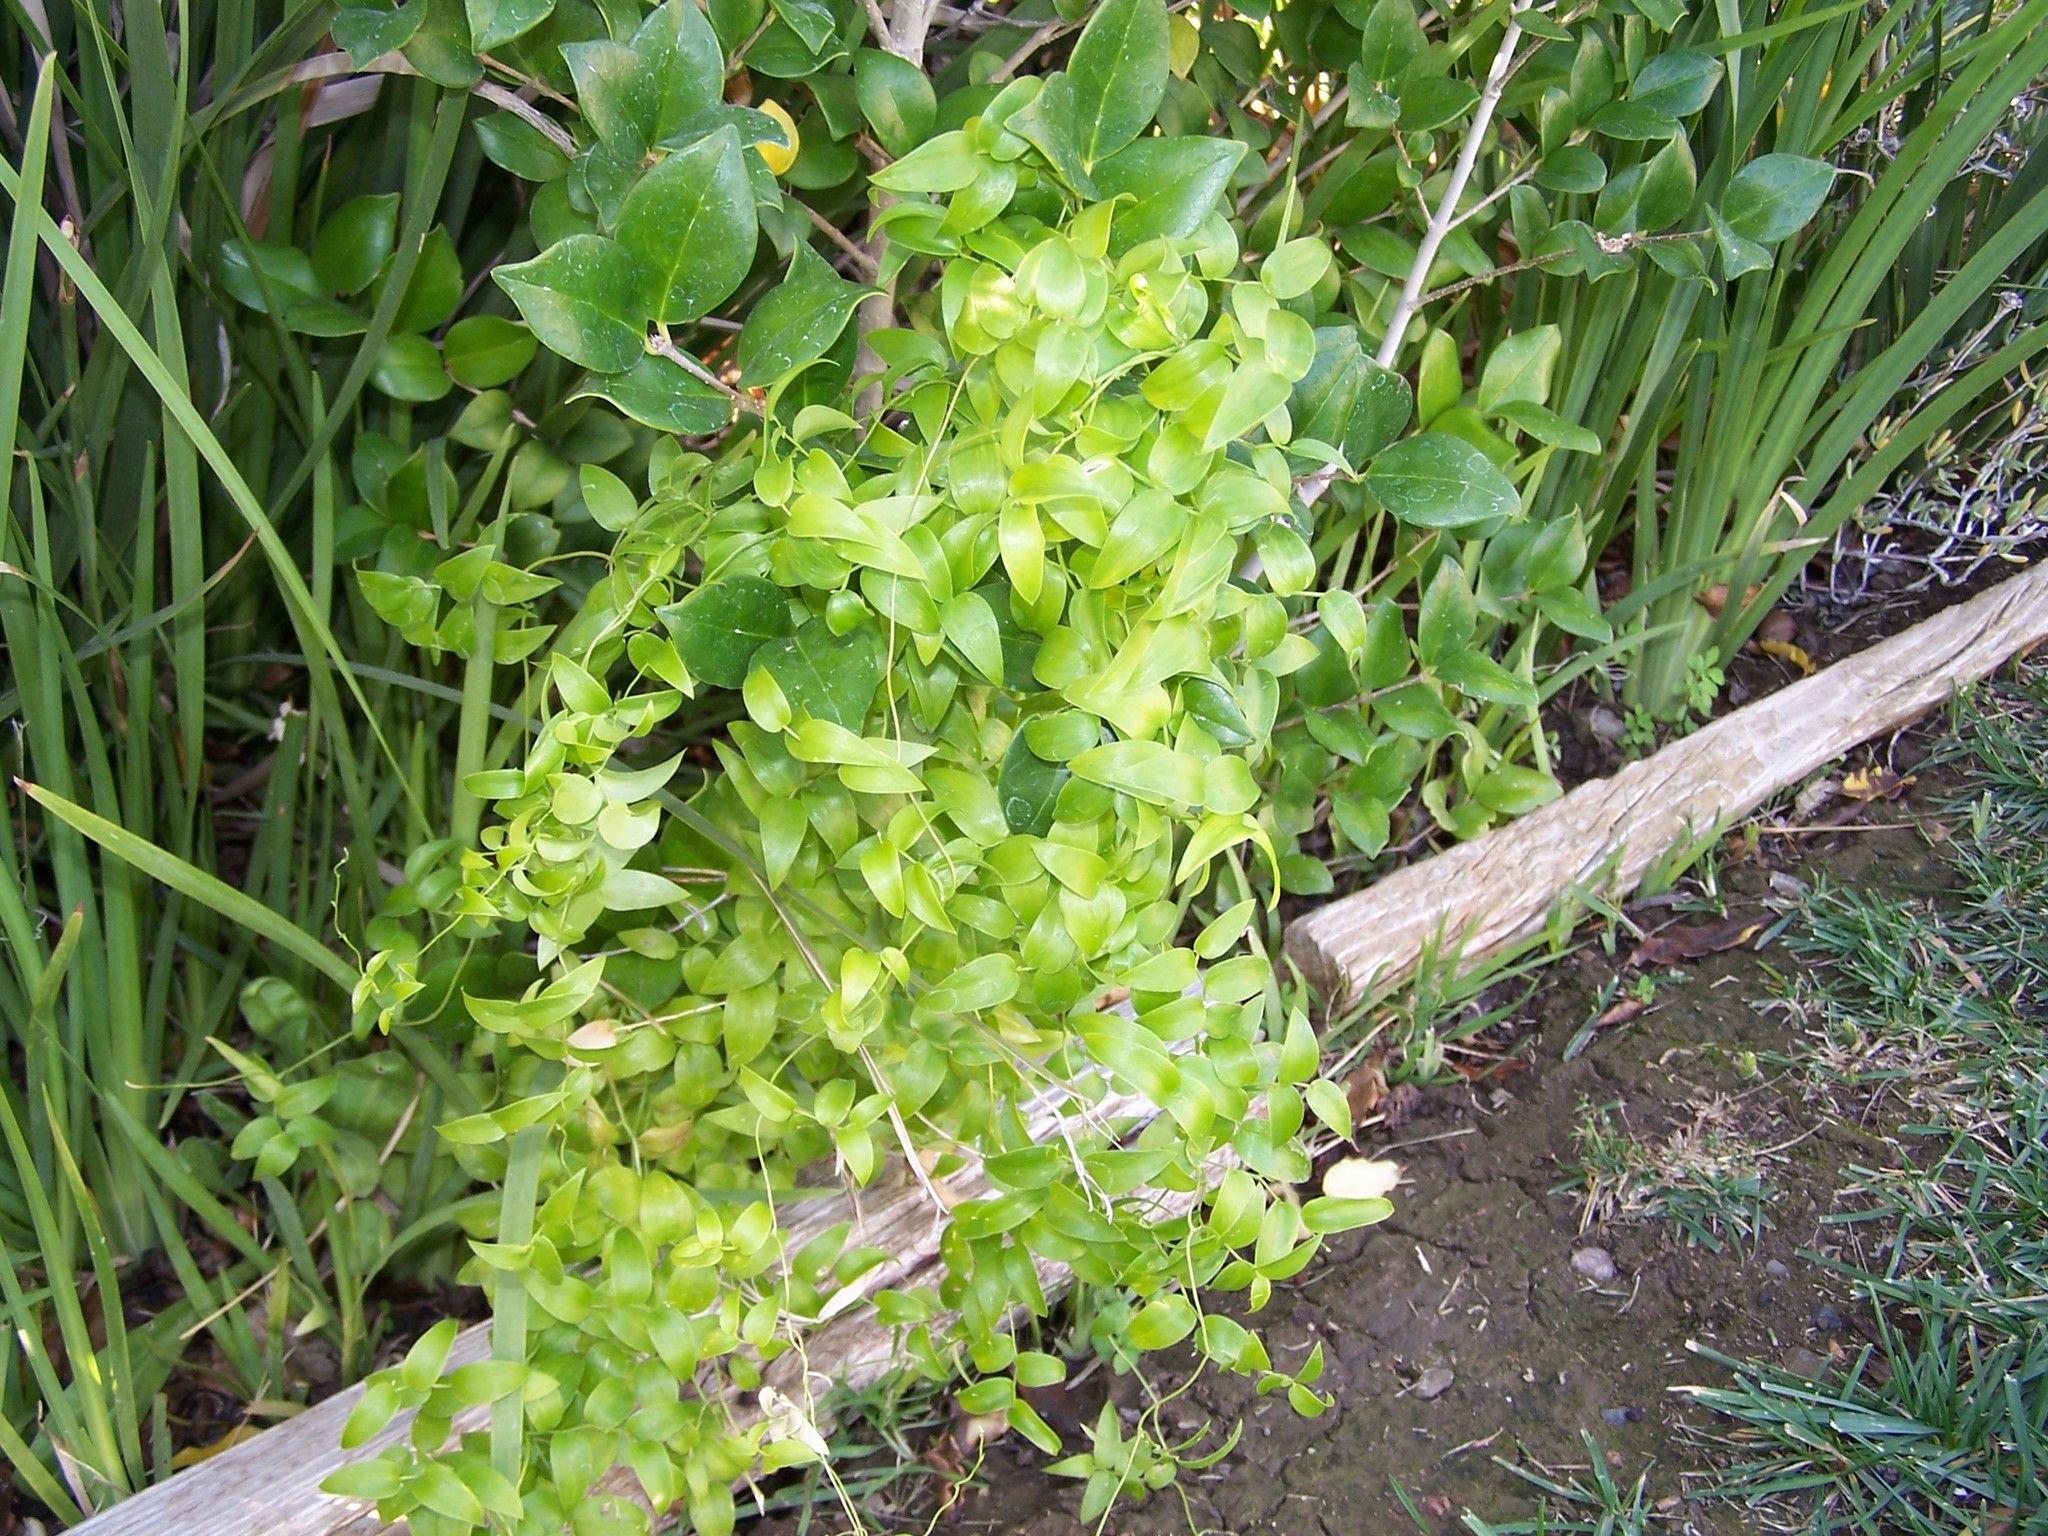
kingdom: Plantae
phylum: Tracheophyta
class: Liliopsida
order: Asparagales
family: Asparagaceae
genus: Asparagus
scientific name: Asparagus asparagoides
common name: African asparagus fern
